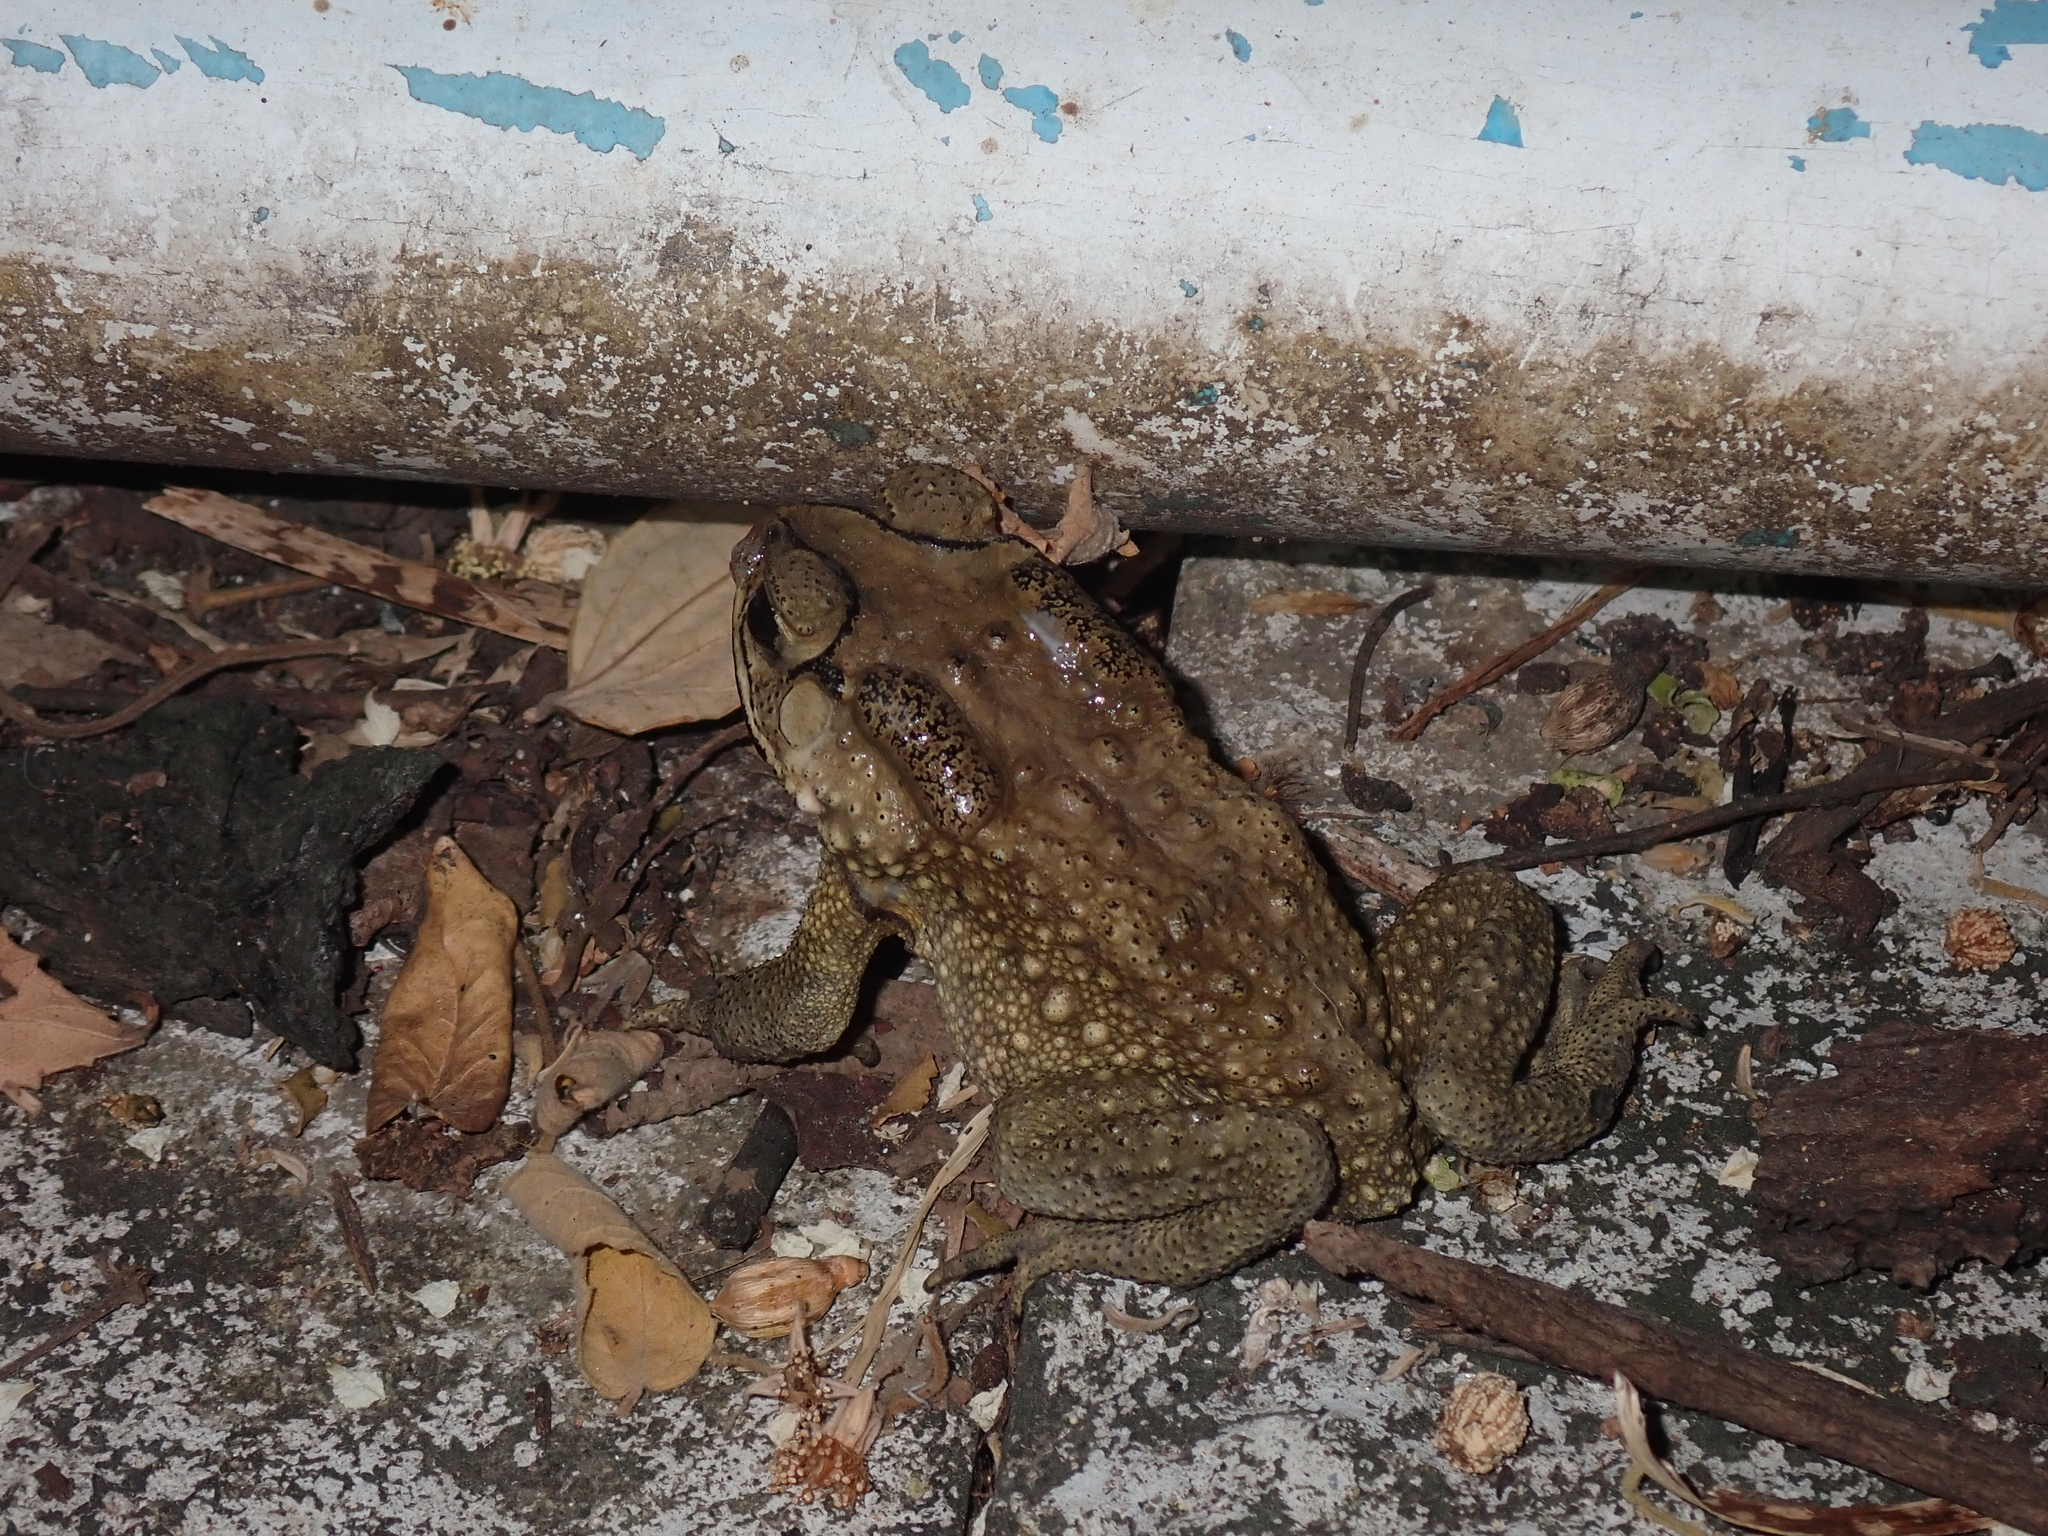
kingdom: Animalia
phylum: Chordata
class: Amphibia
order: Anura
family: Bufonidae
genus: Duttaphrynus
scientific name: Duttaphrynus melanostictus
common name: Common sunda toad
